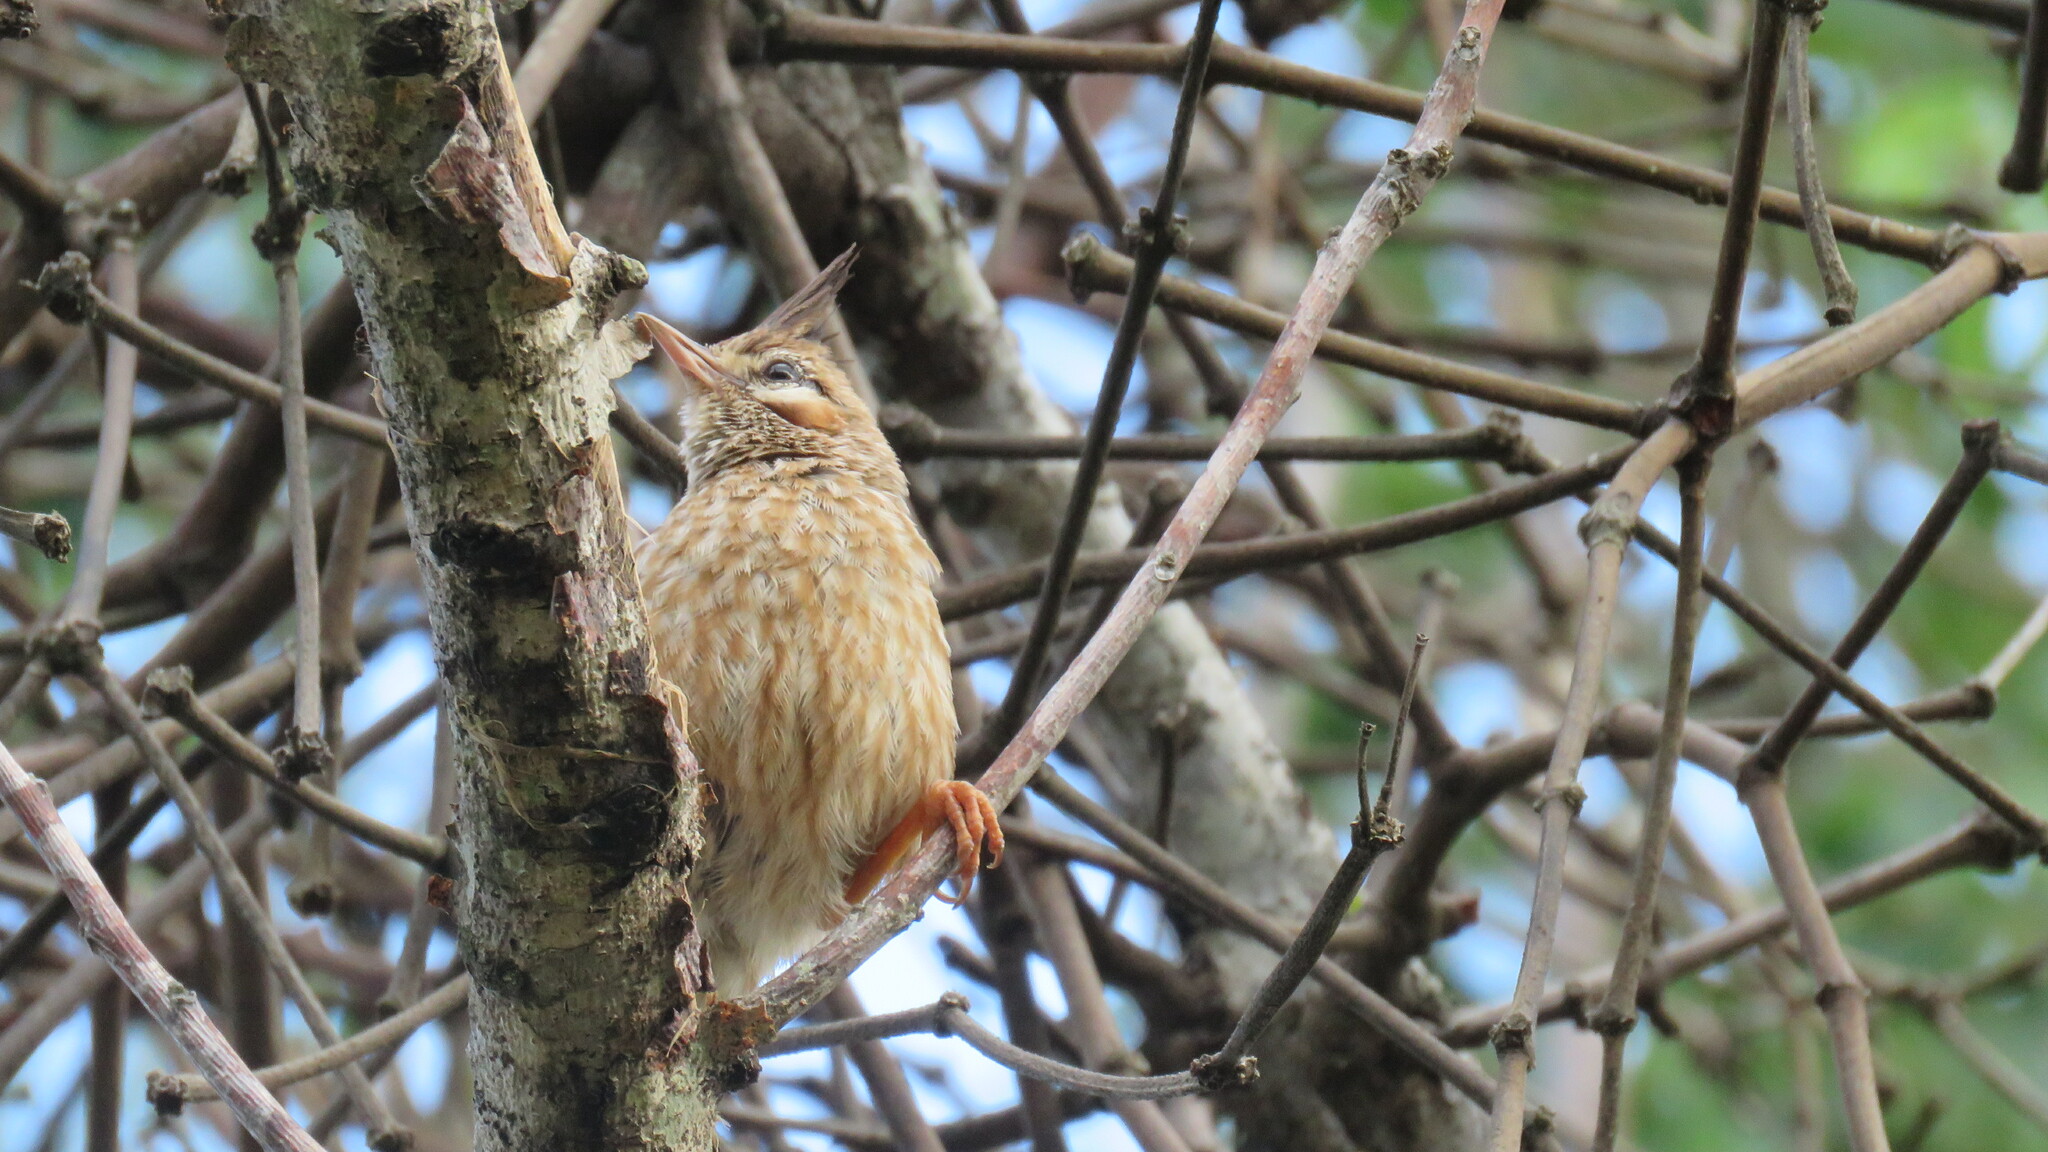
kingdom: Animalia
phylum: Chordata
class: Aves
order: Passeriformes
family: Furnariidae
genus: Coryphistera
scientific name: Coryphistera alaudina
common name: Lark-like brushrunner
